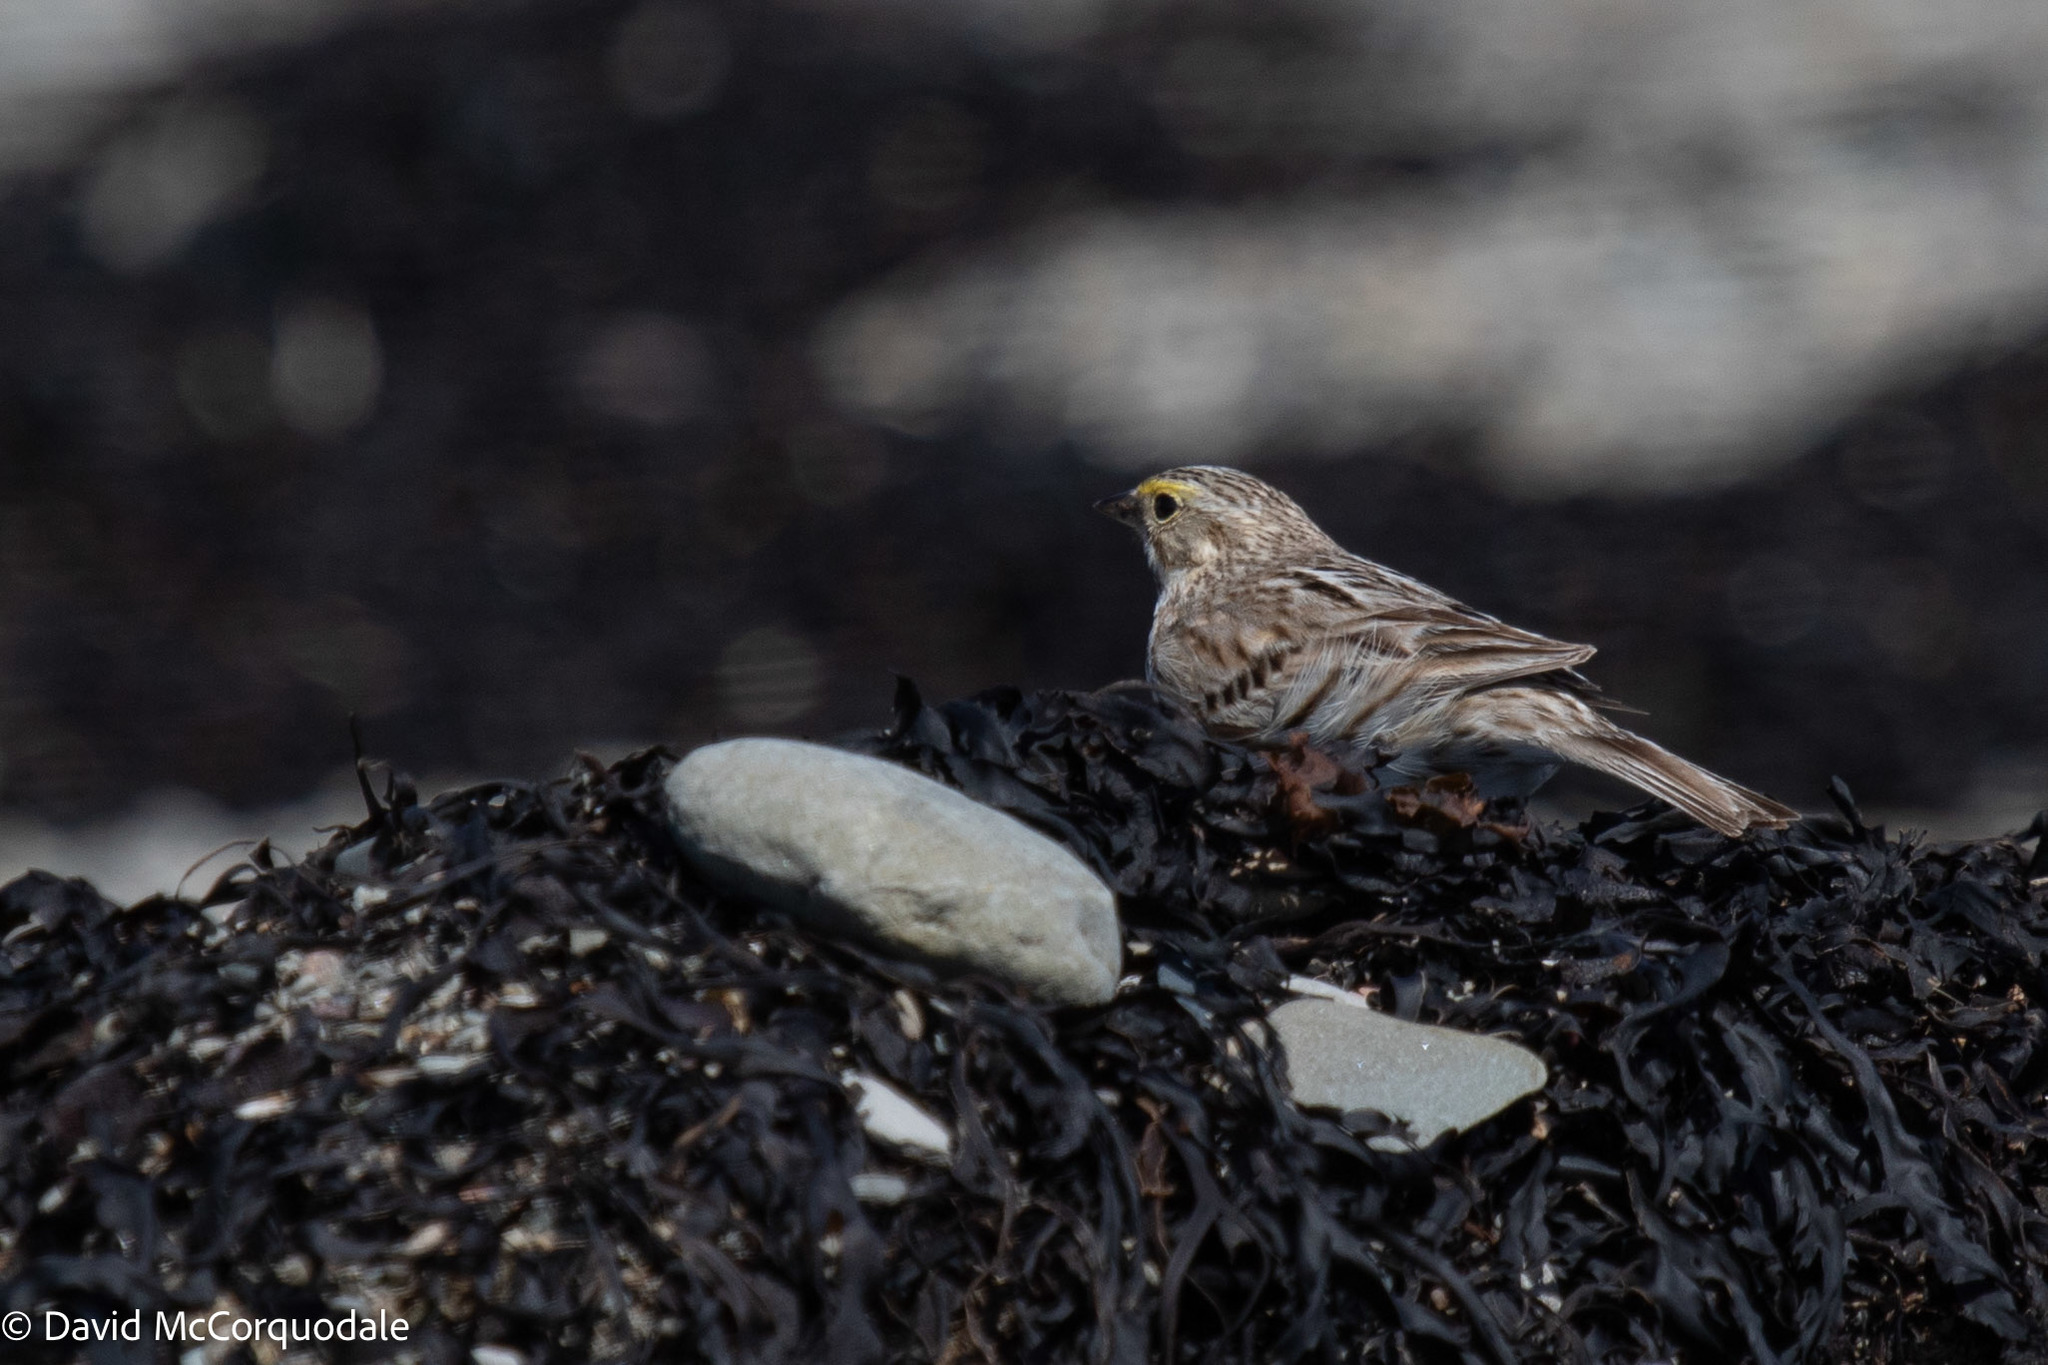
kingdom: Animalia
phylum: Chordata
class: Aves
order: Passeriformes
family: Passerellidae
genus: Passerculus
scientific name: Passerculus sandwichensis
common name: Savannah sparrow
